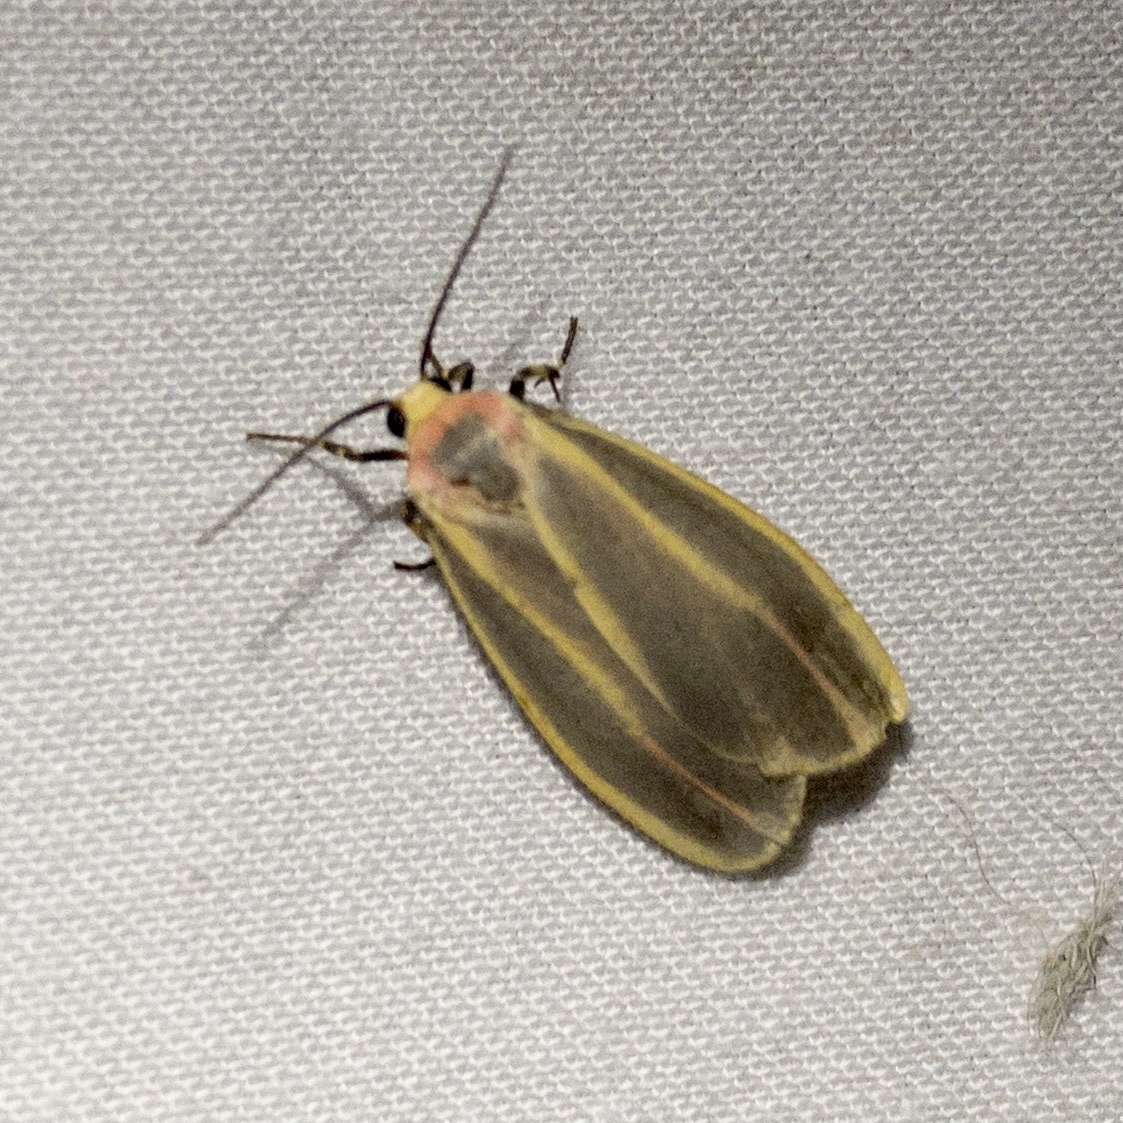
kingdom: Animalia
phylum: Arthropoda
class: Insecta
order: Lepidoptera
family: Erebidae
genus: Hypoprepia
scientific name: Hypoprepia fucosa
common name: Painted lichen moth
